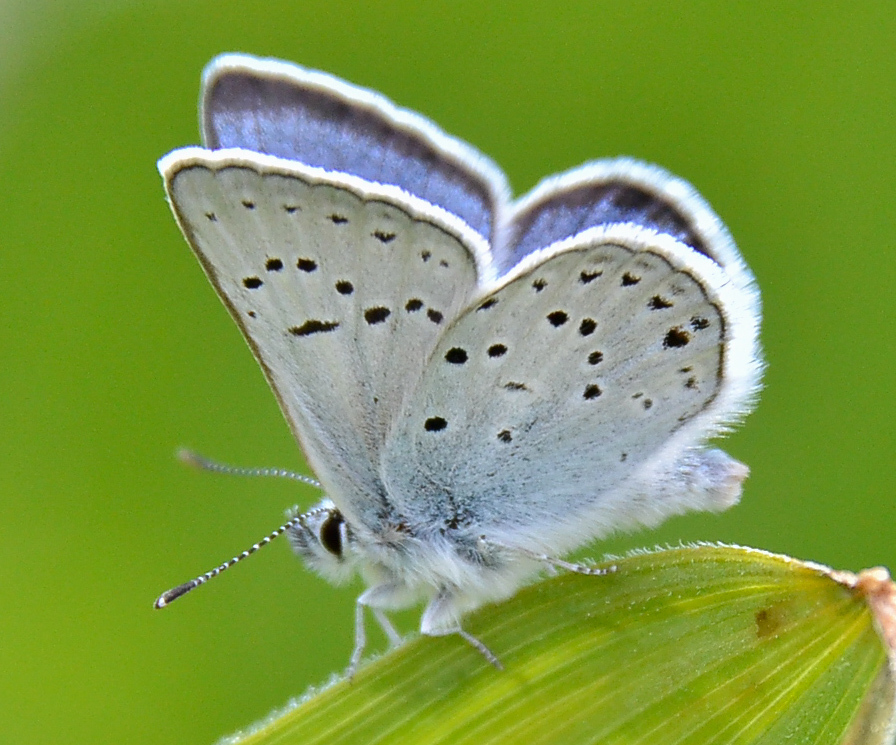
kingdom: Animalia
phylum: Arthropoda
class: Insecta
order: Lepidoptera
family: Lycaenidae
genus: Icaricia
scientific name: Icaricia saepiolus
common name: Greenish blue
